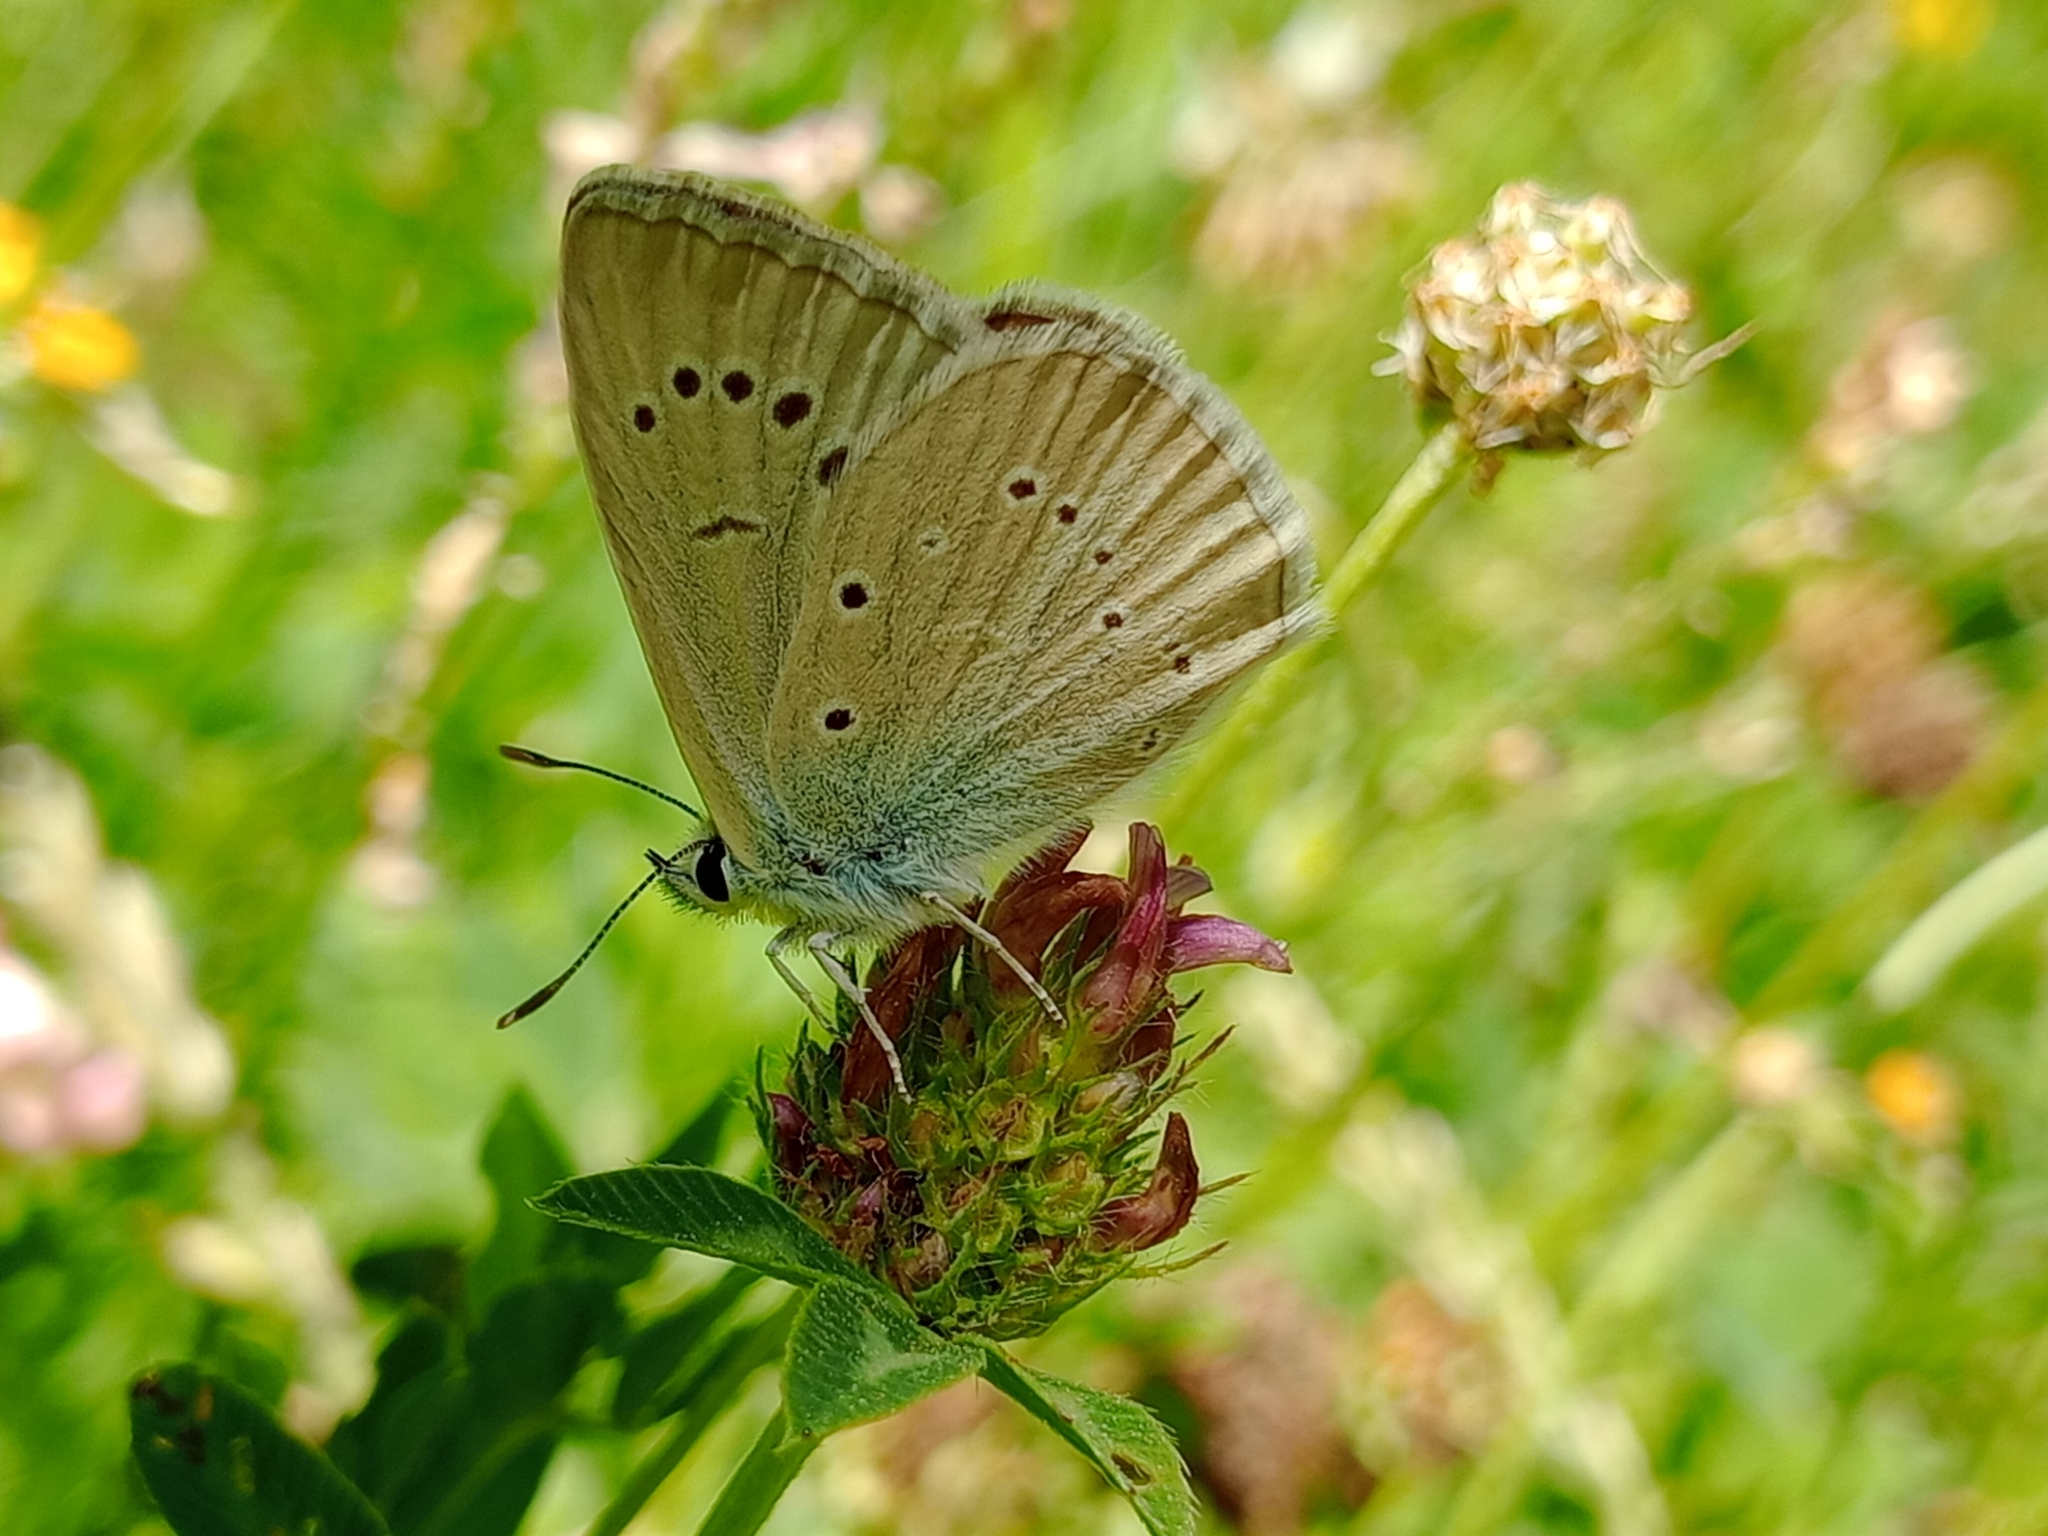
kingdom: Animalia
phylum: Arthropoda
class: Insecta
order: Lepidoptera
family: Lycaenidae
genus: Agrodiaetus
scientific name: Agrodiaetus dolus
